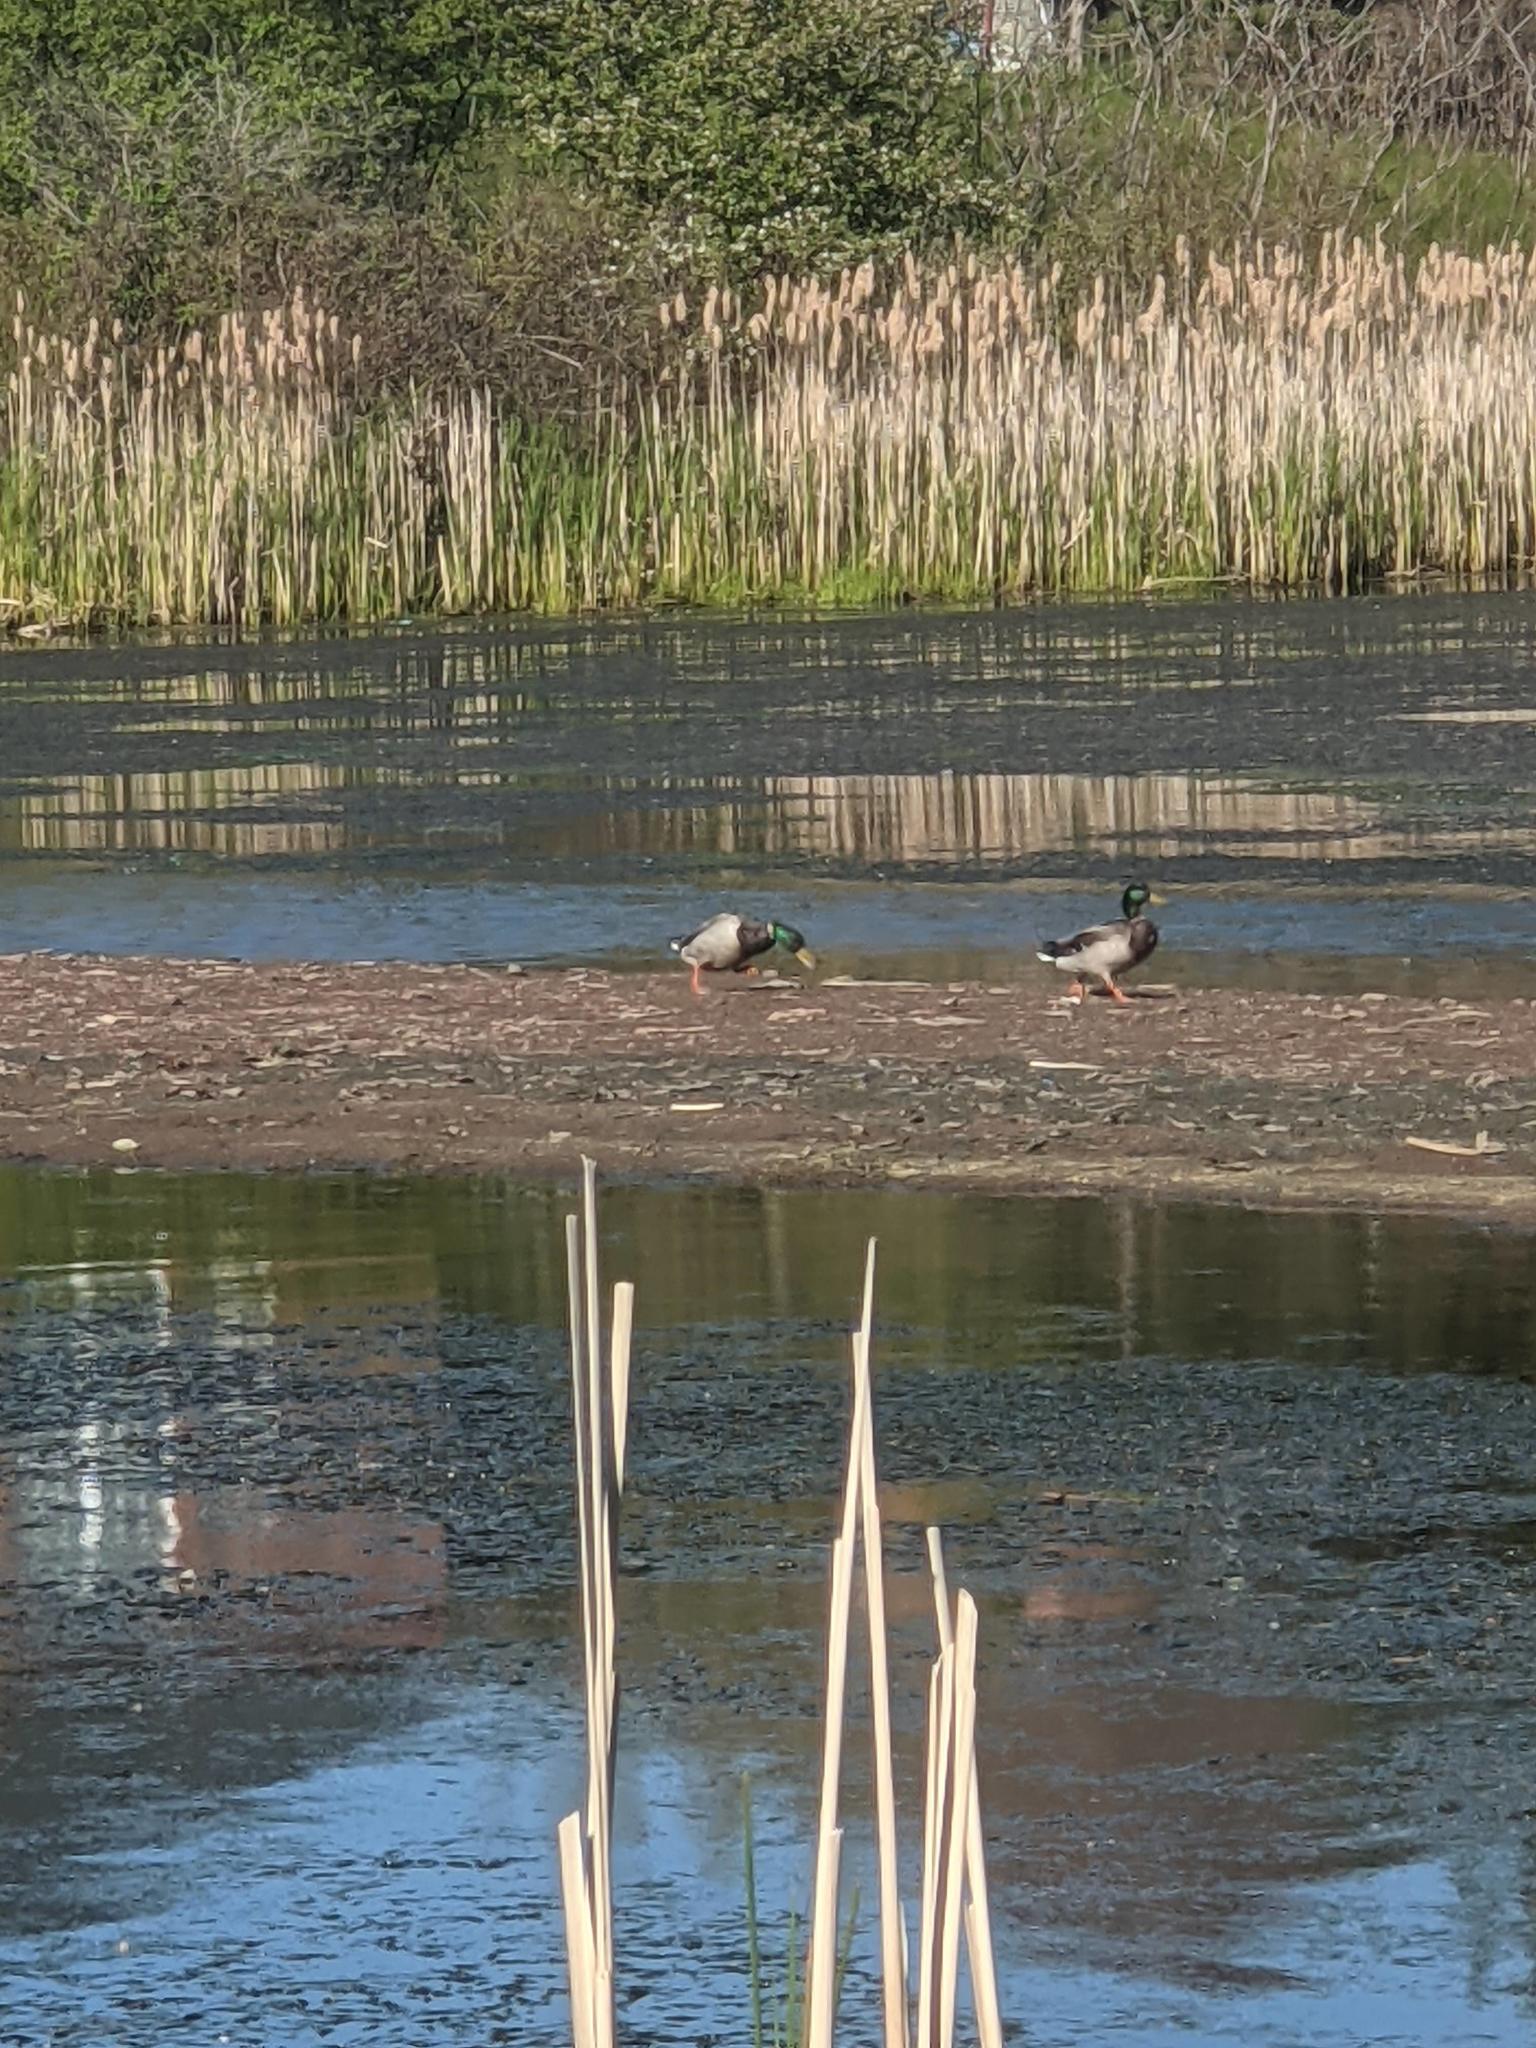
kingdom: Animalia
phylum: Chordata
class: Aves
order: Anseriformes
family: Anatidae
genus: Anas
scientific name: Anas platyrhynchos
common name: Mallard
